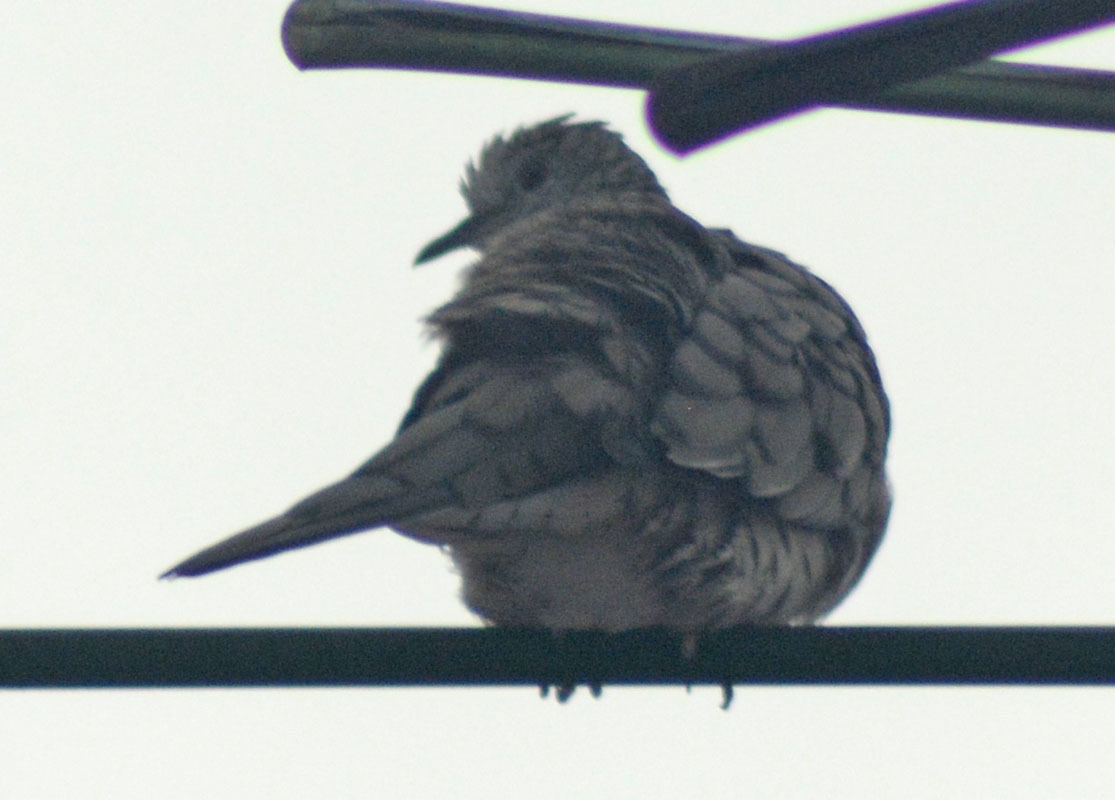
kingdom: Animalia
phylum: Chordata
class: Aves
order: Columbiformes
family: Columbidae
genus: Columbina
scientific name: Columbina inca
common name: Inca dove
